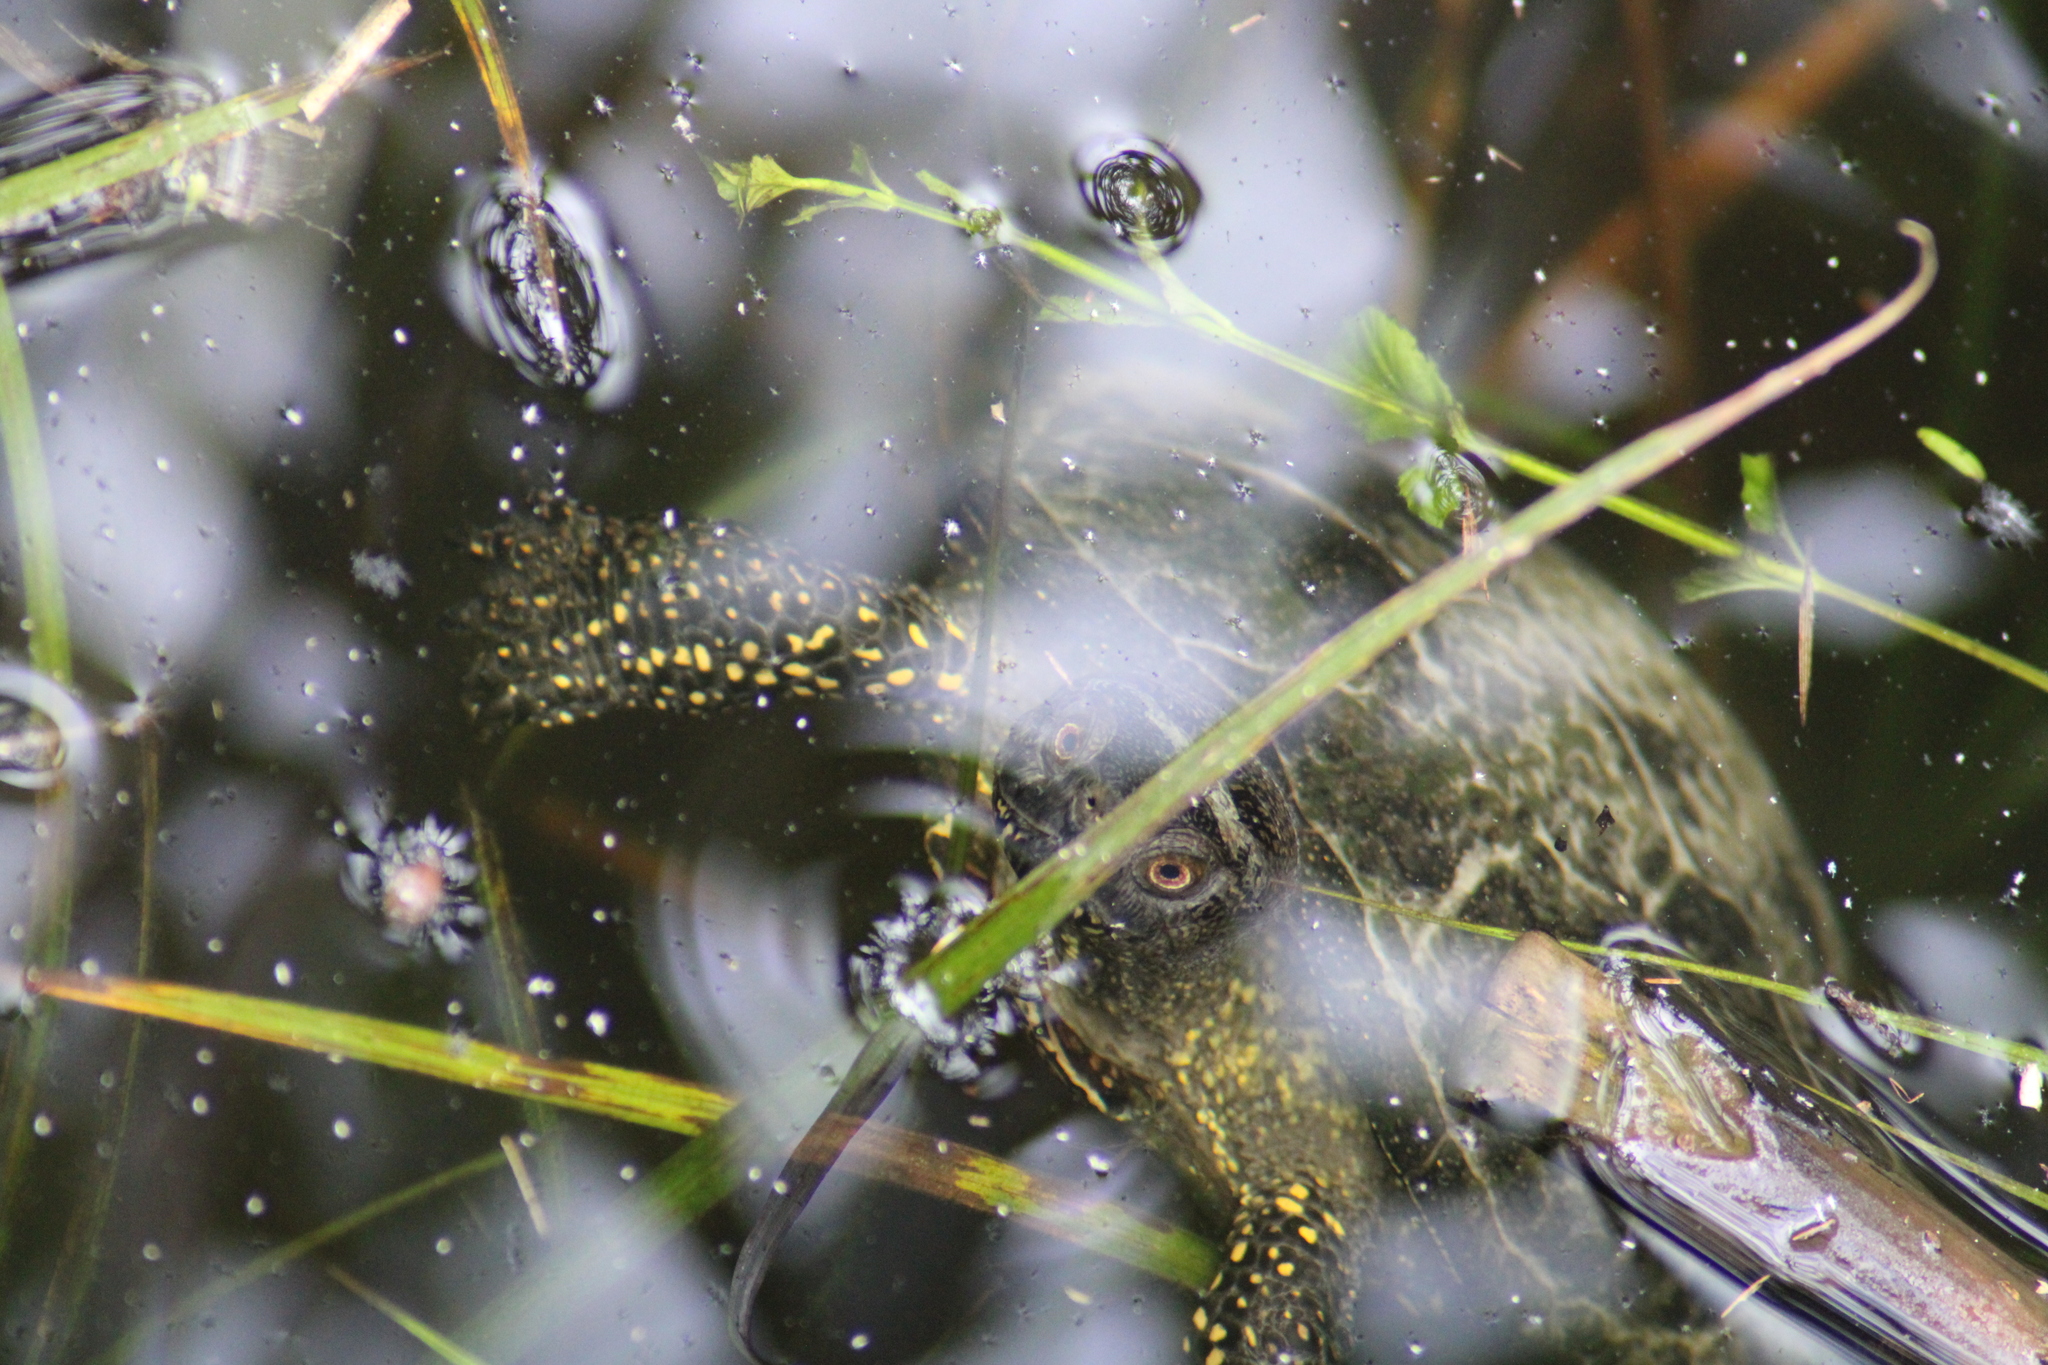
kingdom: Animalia
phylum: Chordata
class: Testudines
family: Emydidae
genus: Emys
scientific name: Emys orbicularis
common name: European pond turtle
